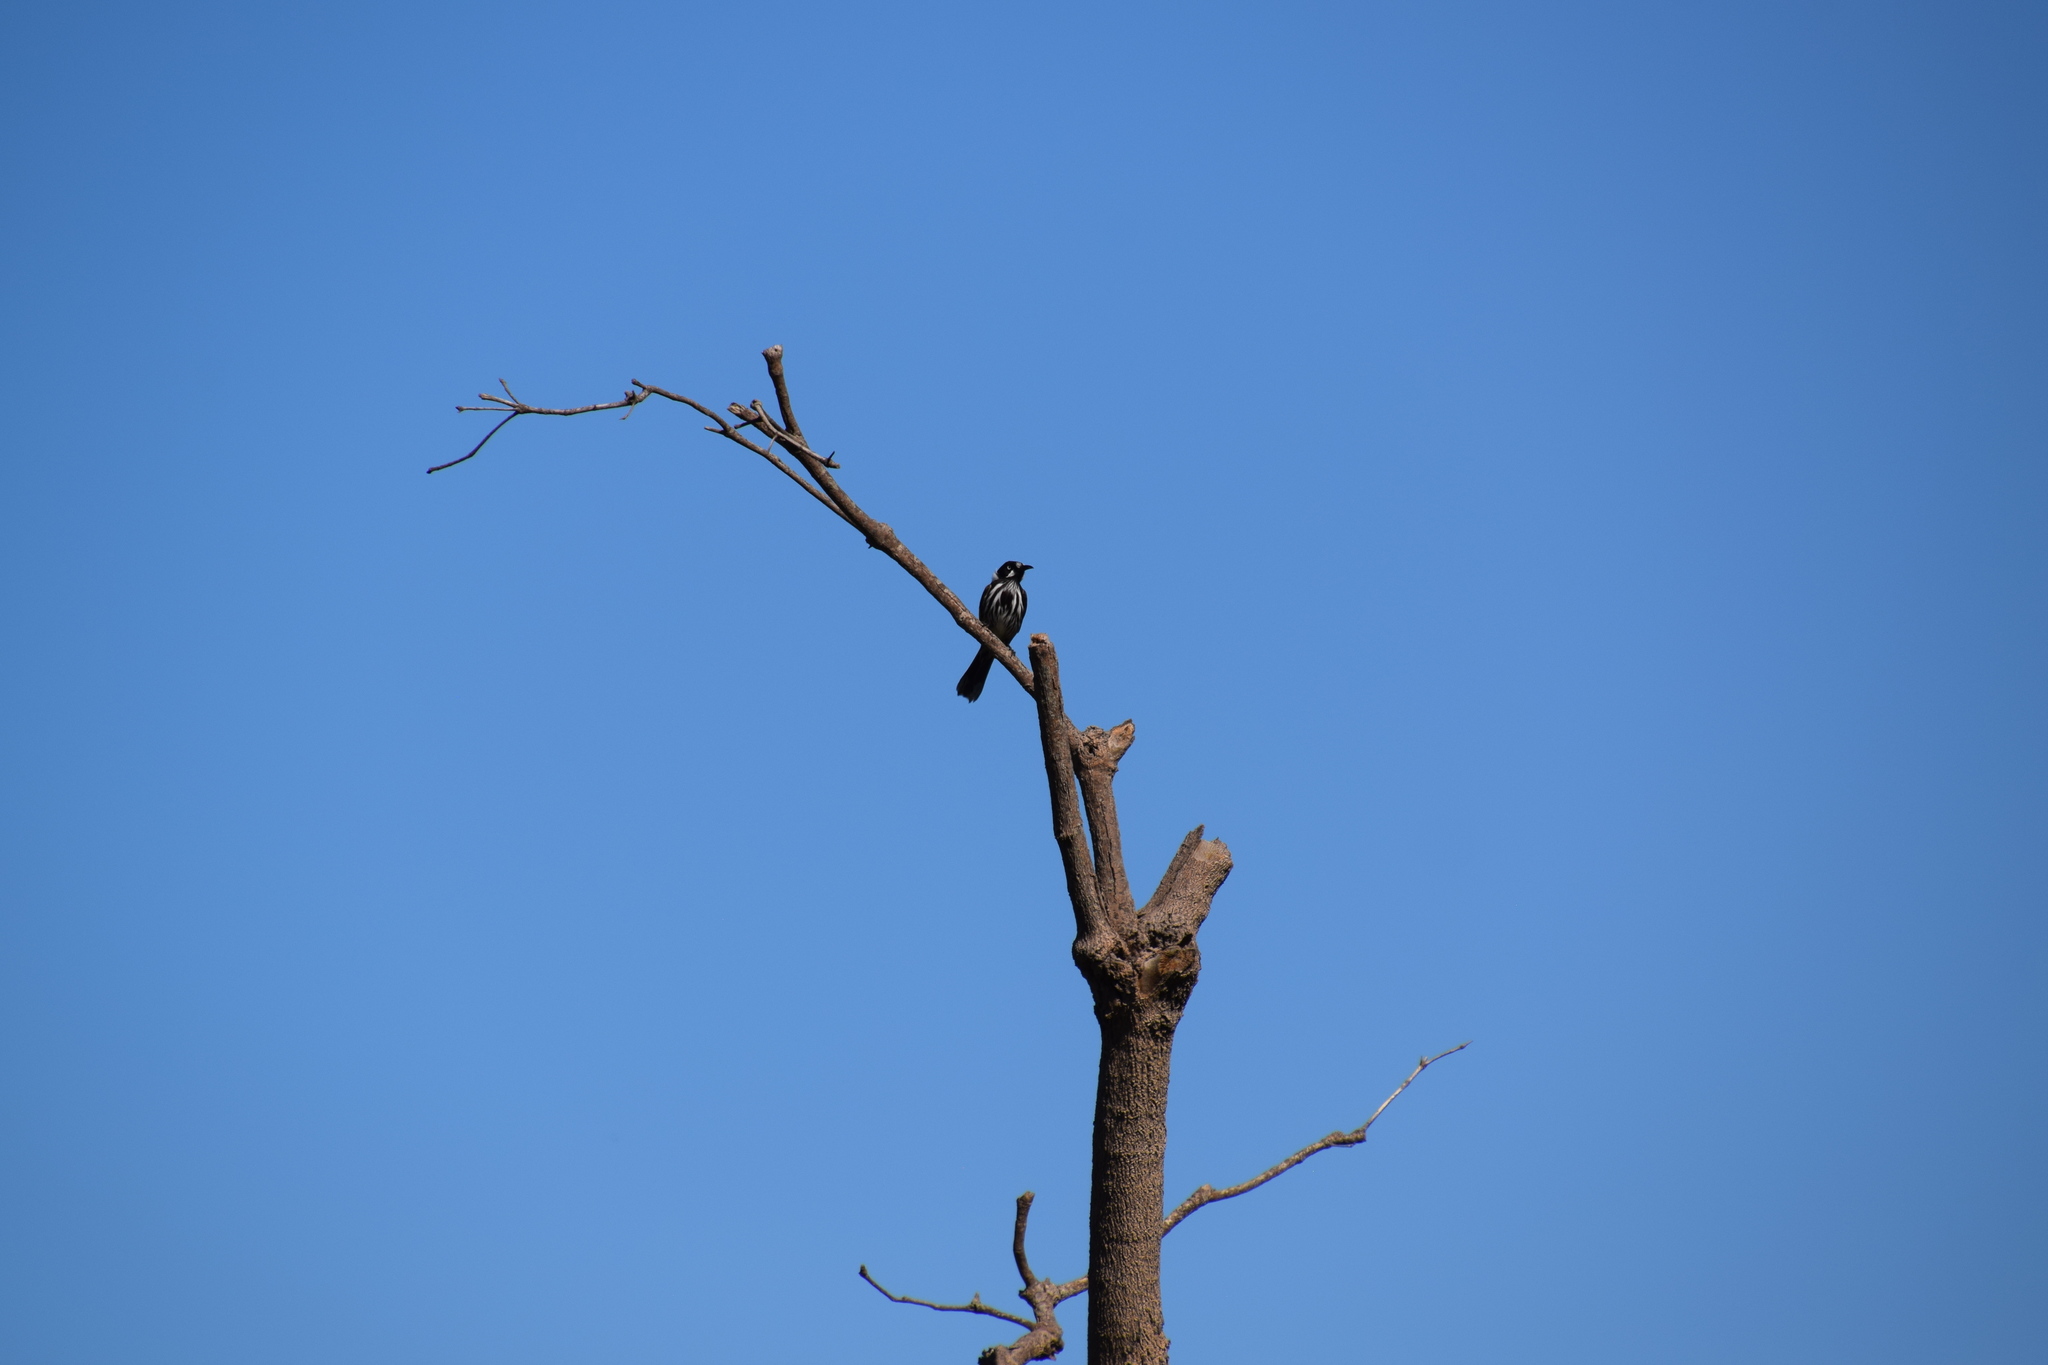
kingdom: Animalia
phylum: Chordata
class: Aves
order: Passeriformes
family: Meliphagidae
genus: Phylidonyris
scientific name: Phylidonyris novaehollandiae
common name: New holland honeyeater
